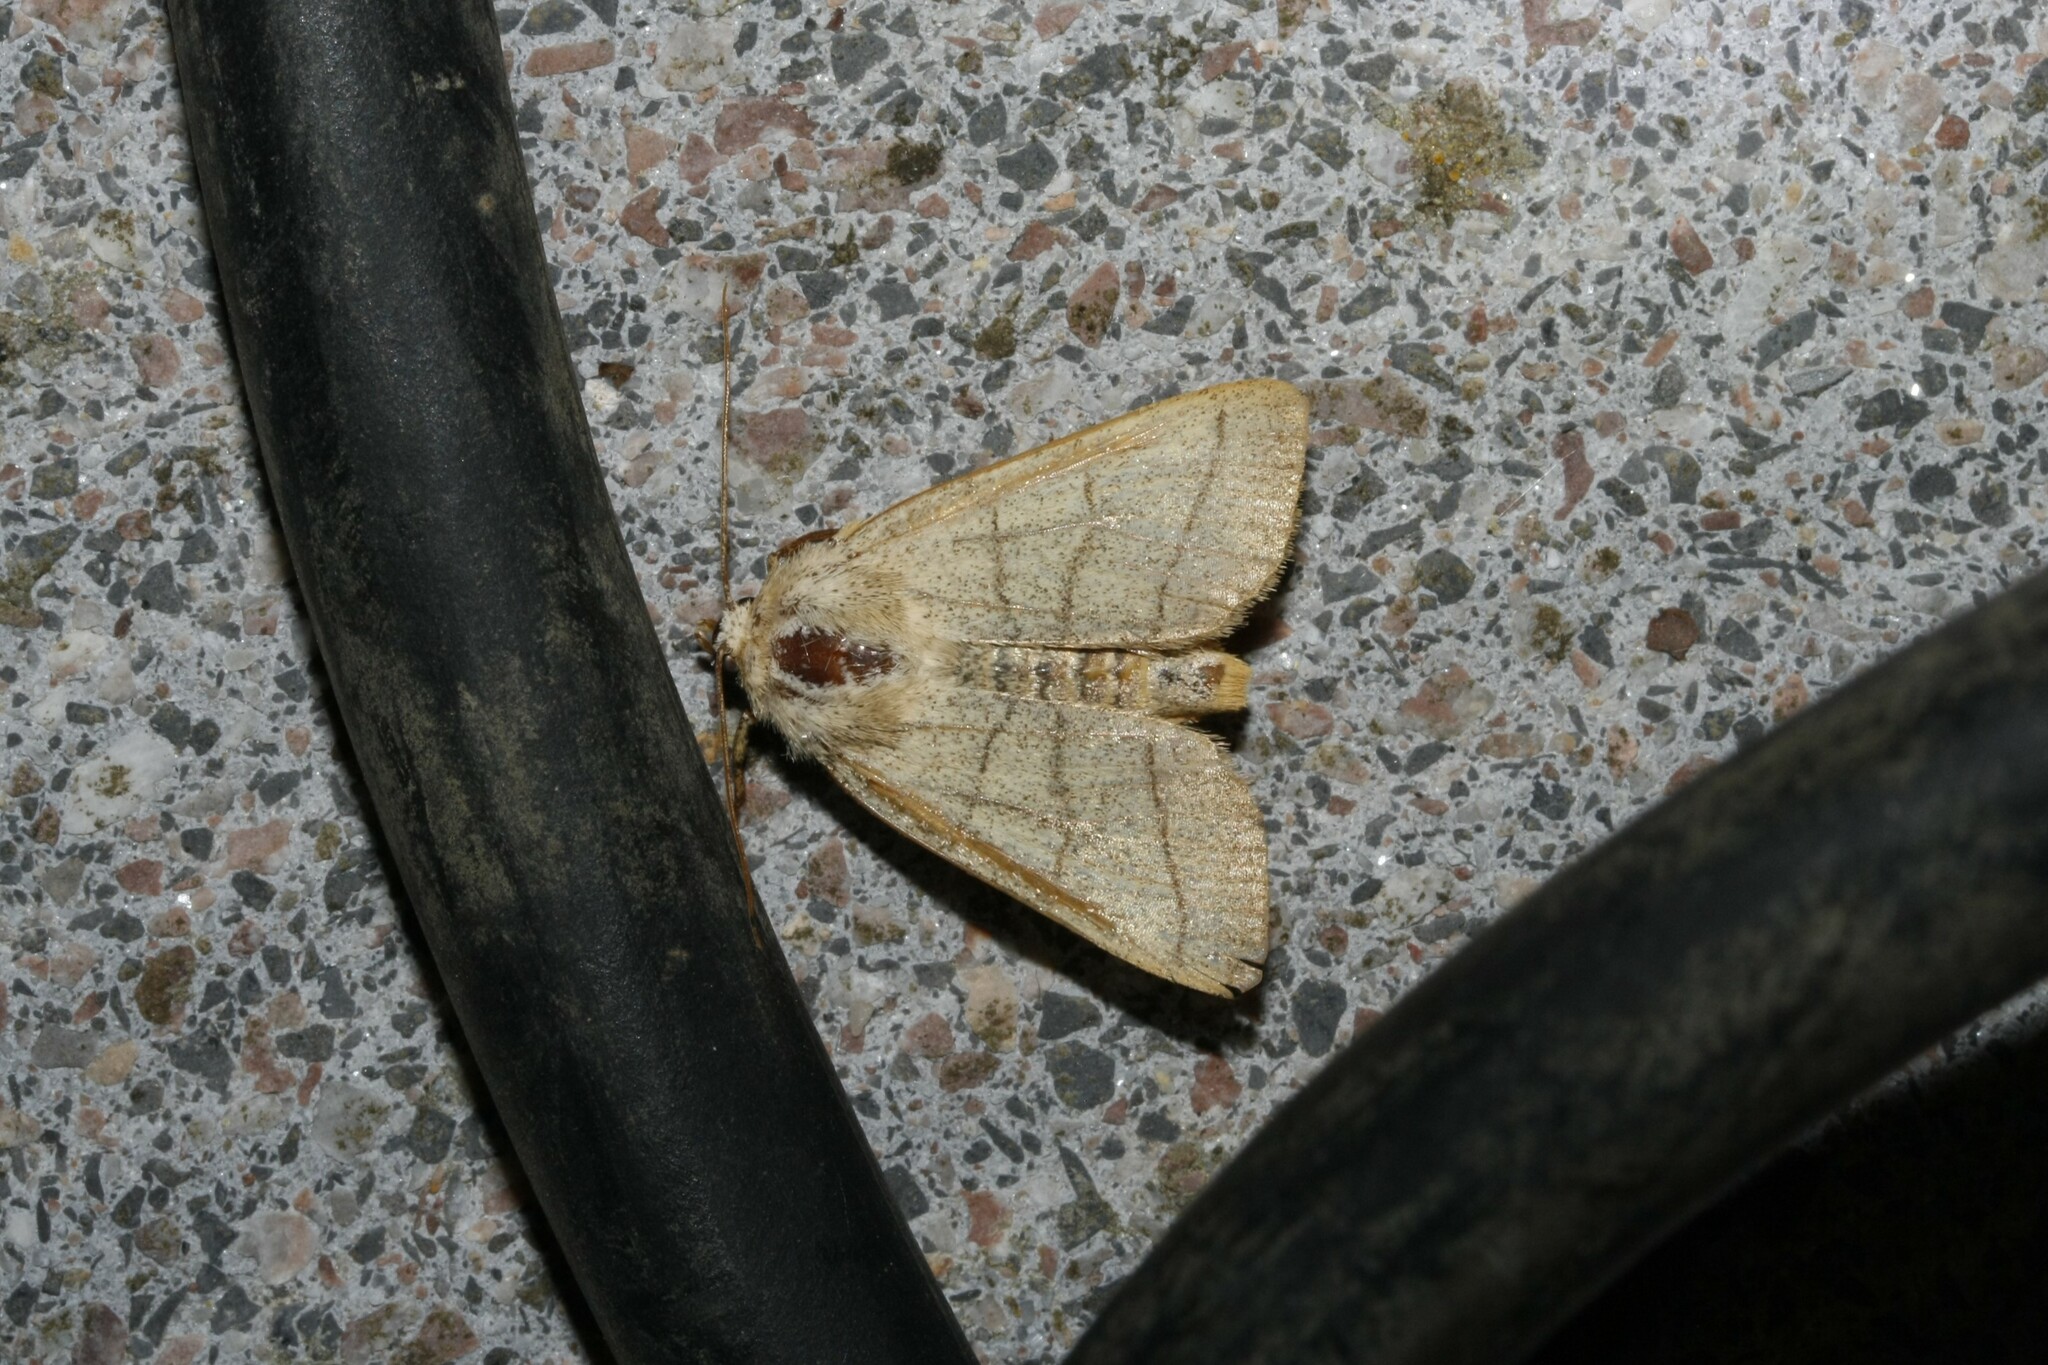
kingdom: Animalia
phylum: Arthropoda
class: Insecta
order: Lepidoptera
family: Noctuidae
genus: Charanyca
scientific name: Charanyca trigrammica
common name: Treble lines
